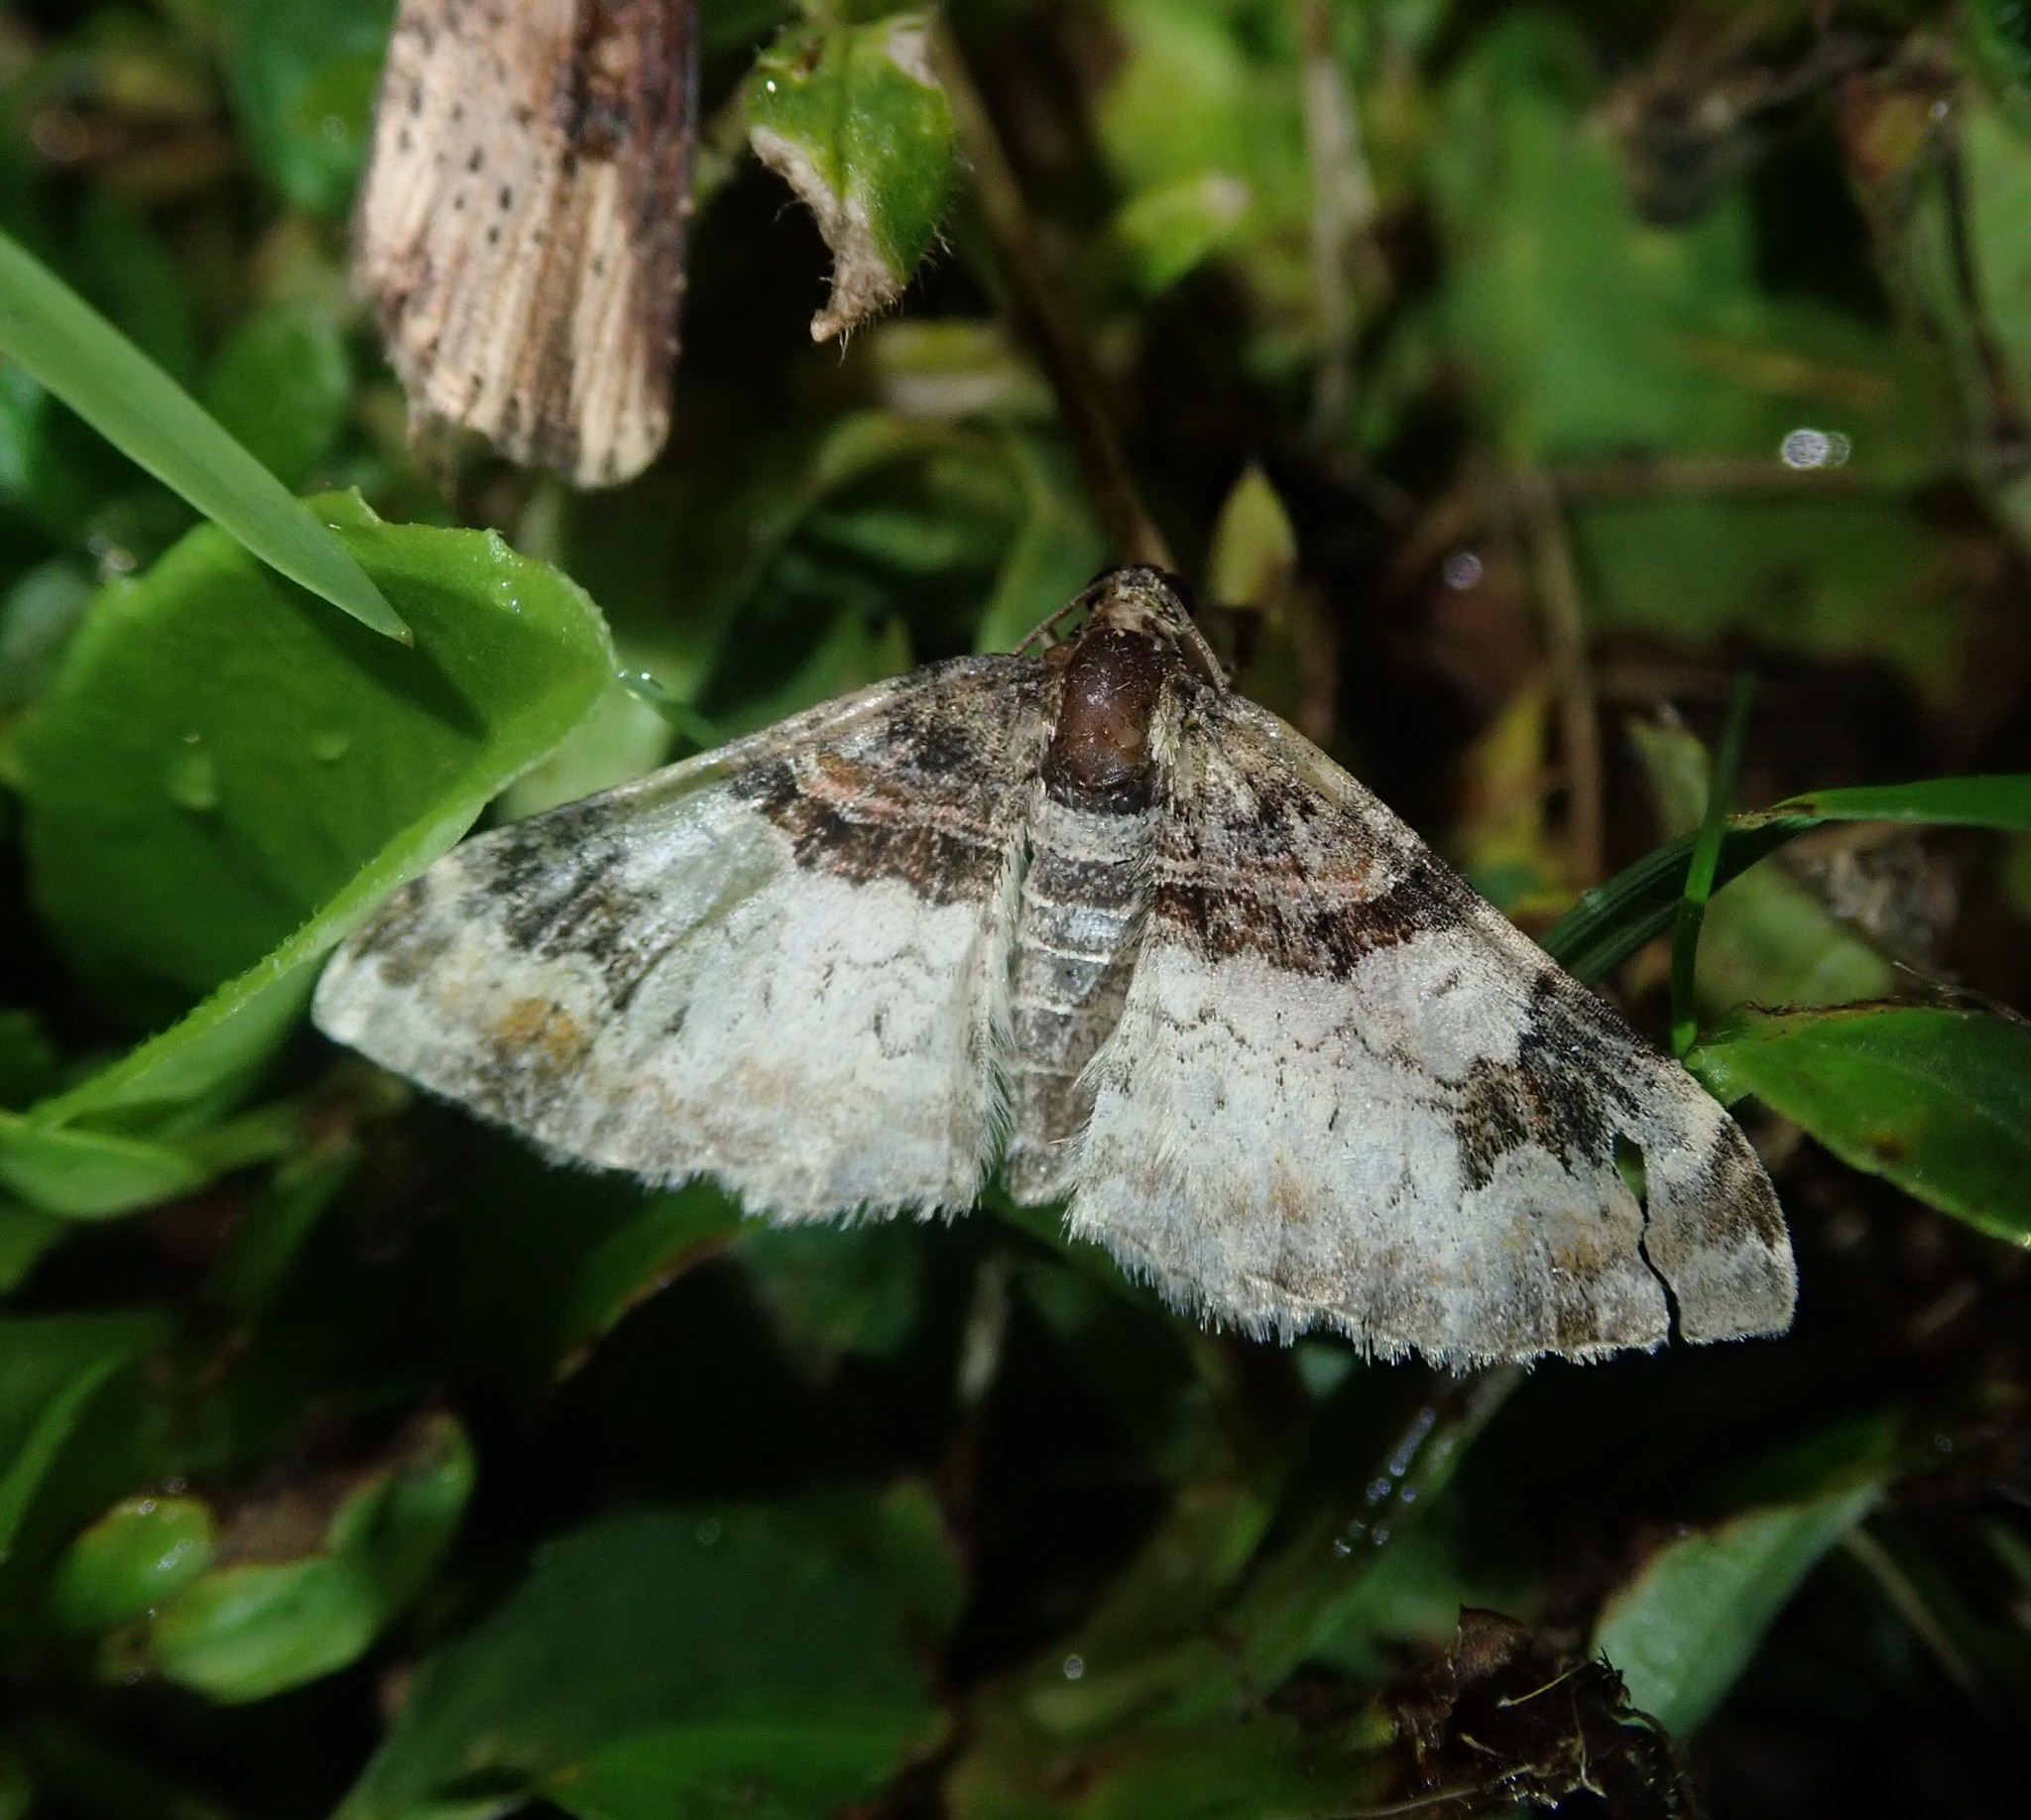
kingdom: Animalia
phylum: Arthropoda
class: Insecta
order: Lepidoptera
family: Geometridae
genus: Catarhoe
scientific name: Catarhoe cuculata
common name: Royal mantle
